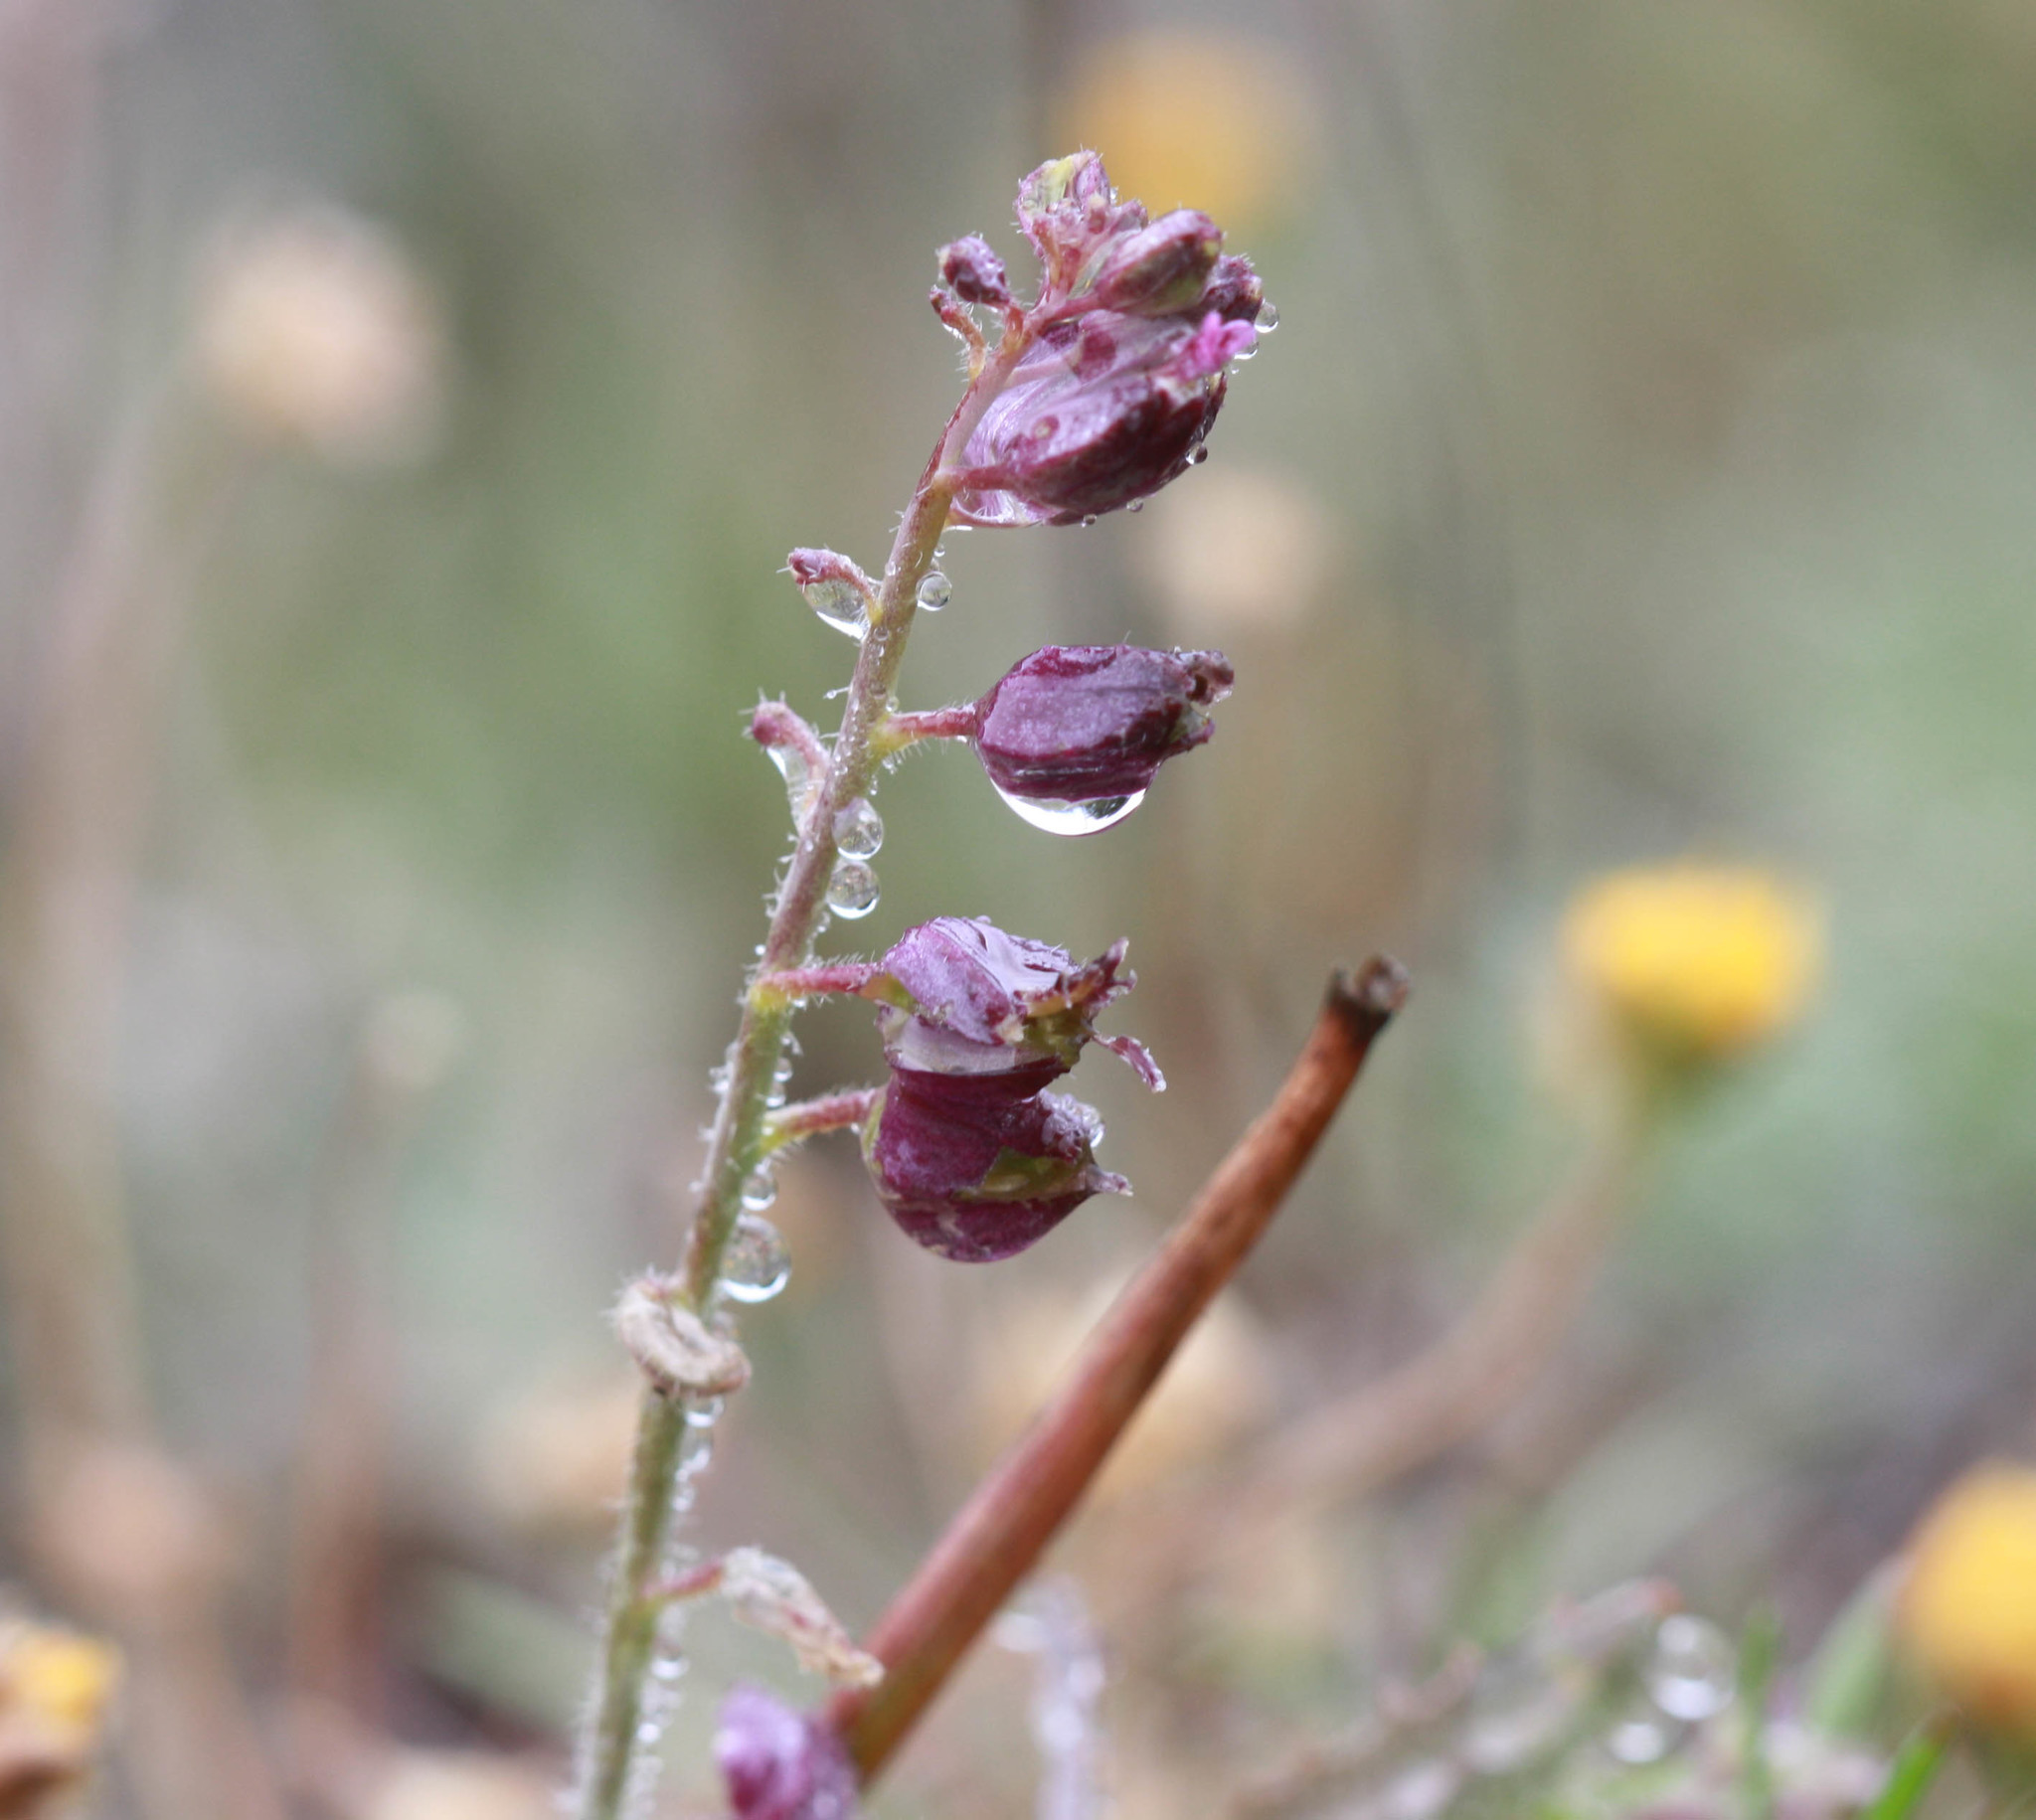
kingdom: Plantae
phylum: Tracheophyta
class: Magnoliopsida
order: Brassicales
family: Brassicaceae
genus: Streptanthus
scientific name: Streptanthus glandulosus
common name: Jewel-flower
